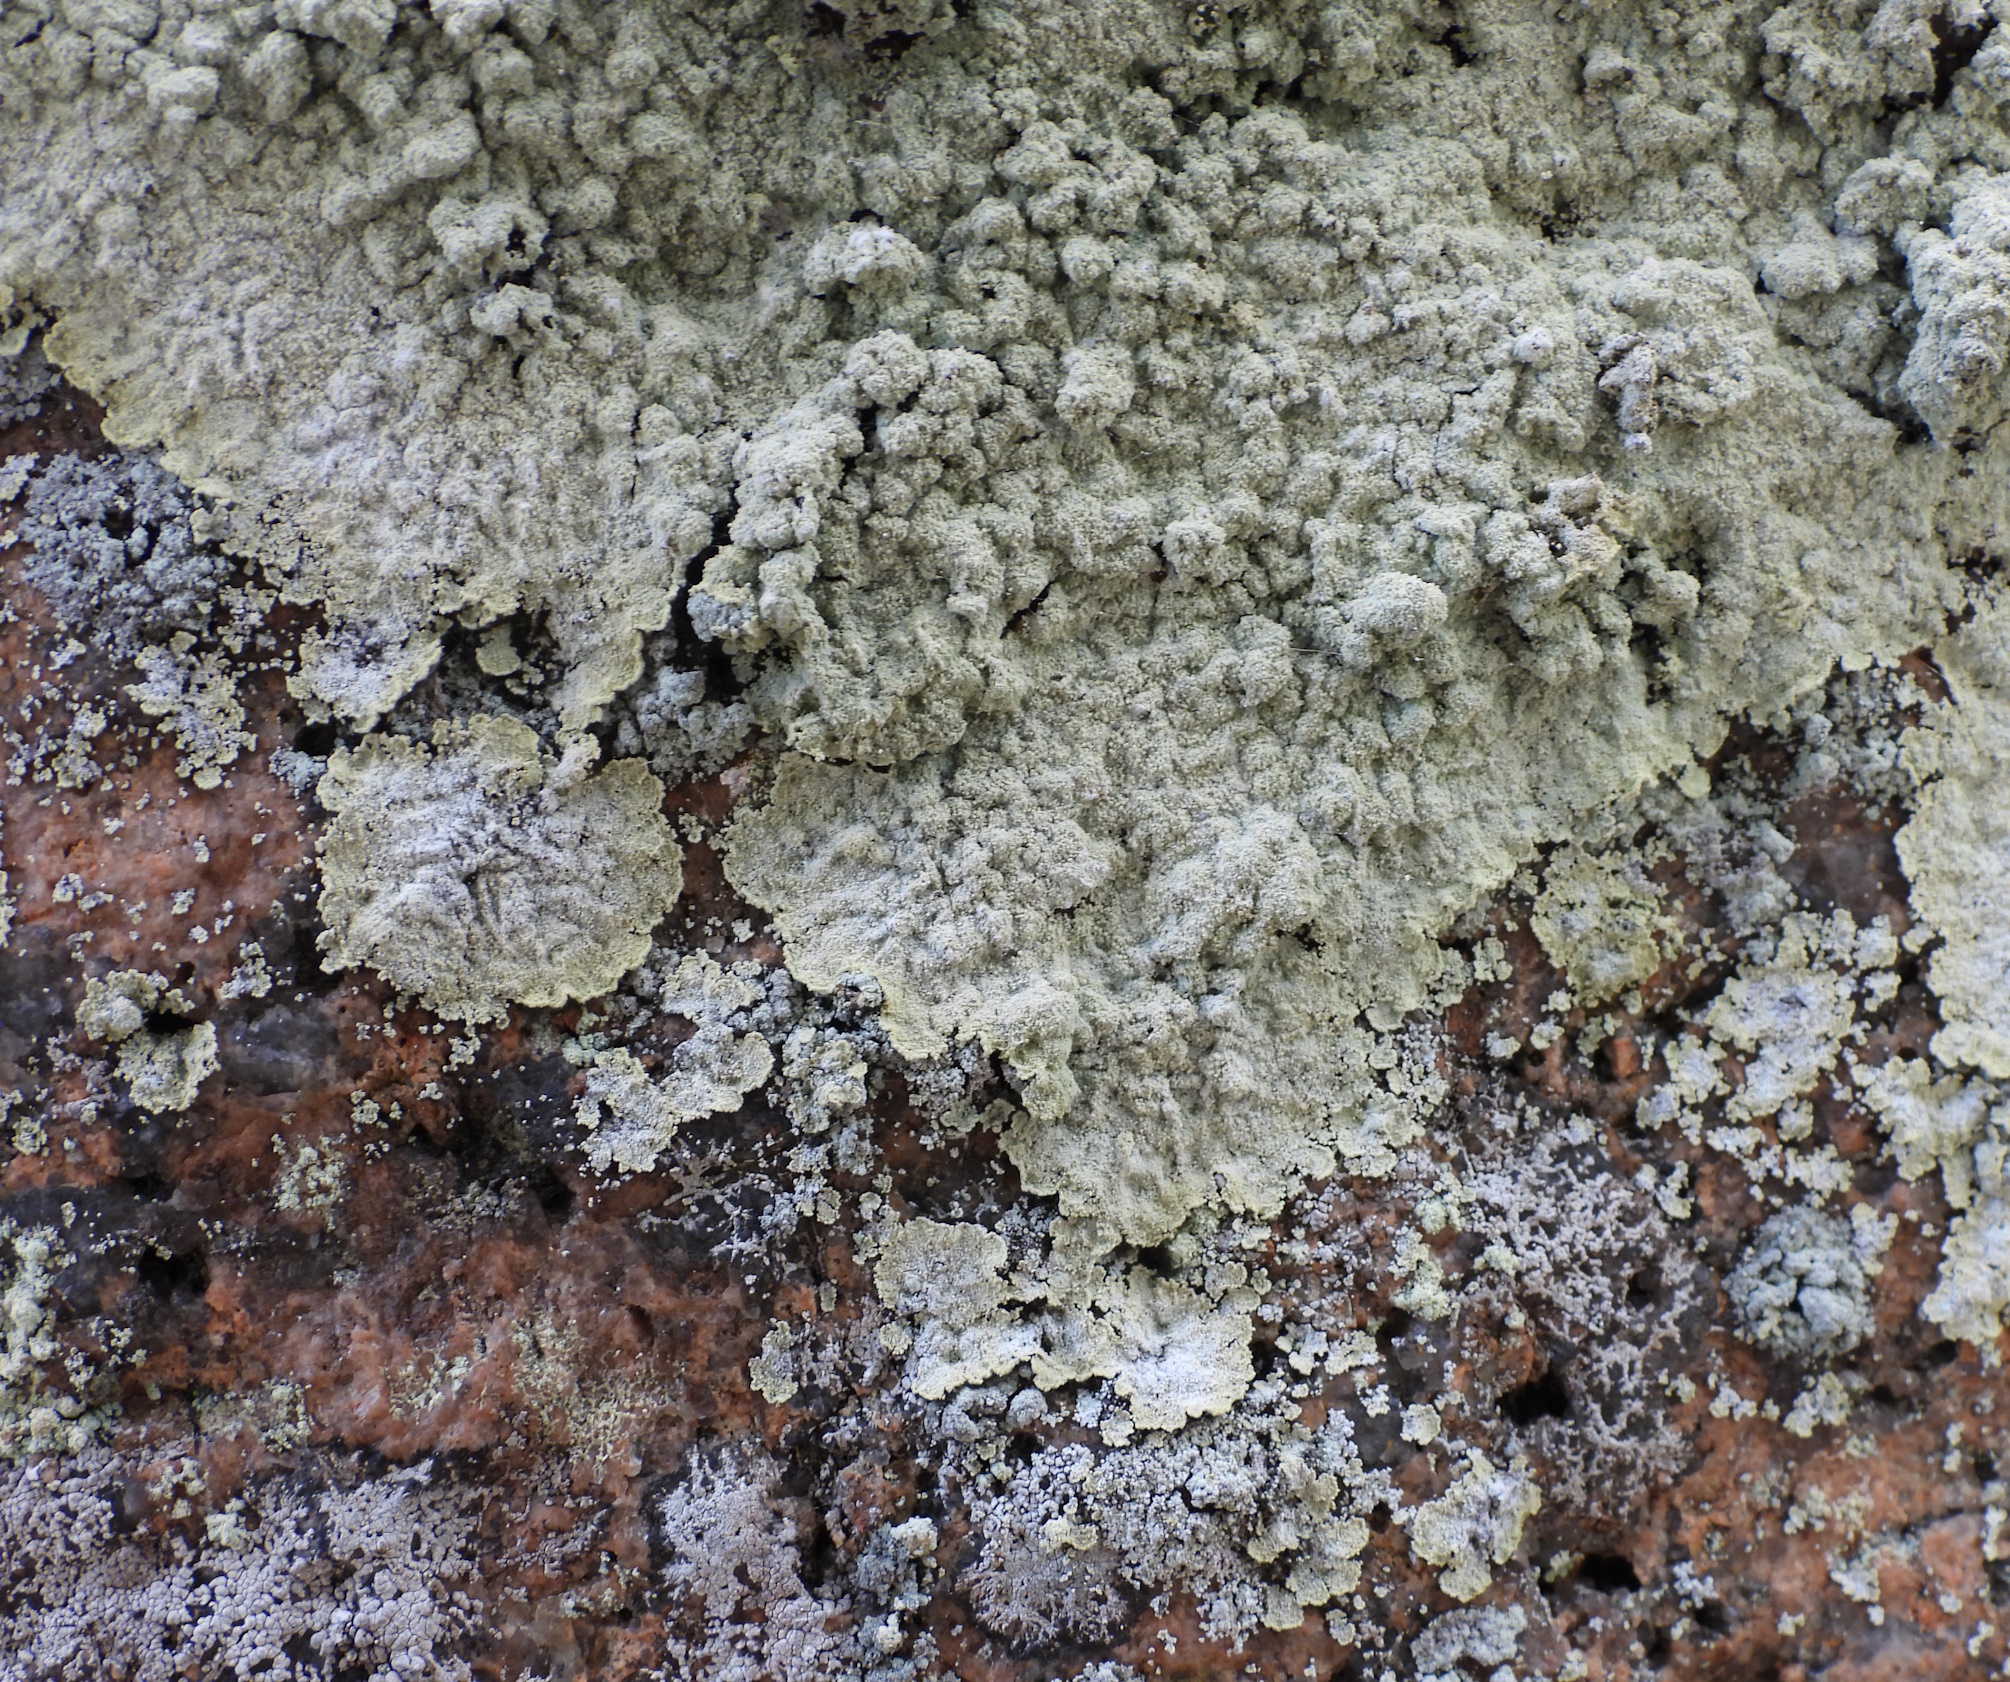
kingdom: Fungi
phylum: Ascomycota
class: Lecanoromycetes
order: Lecanorales
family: Stereocaulaceae
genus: Lepraria
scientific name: Lepraria membranacea
